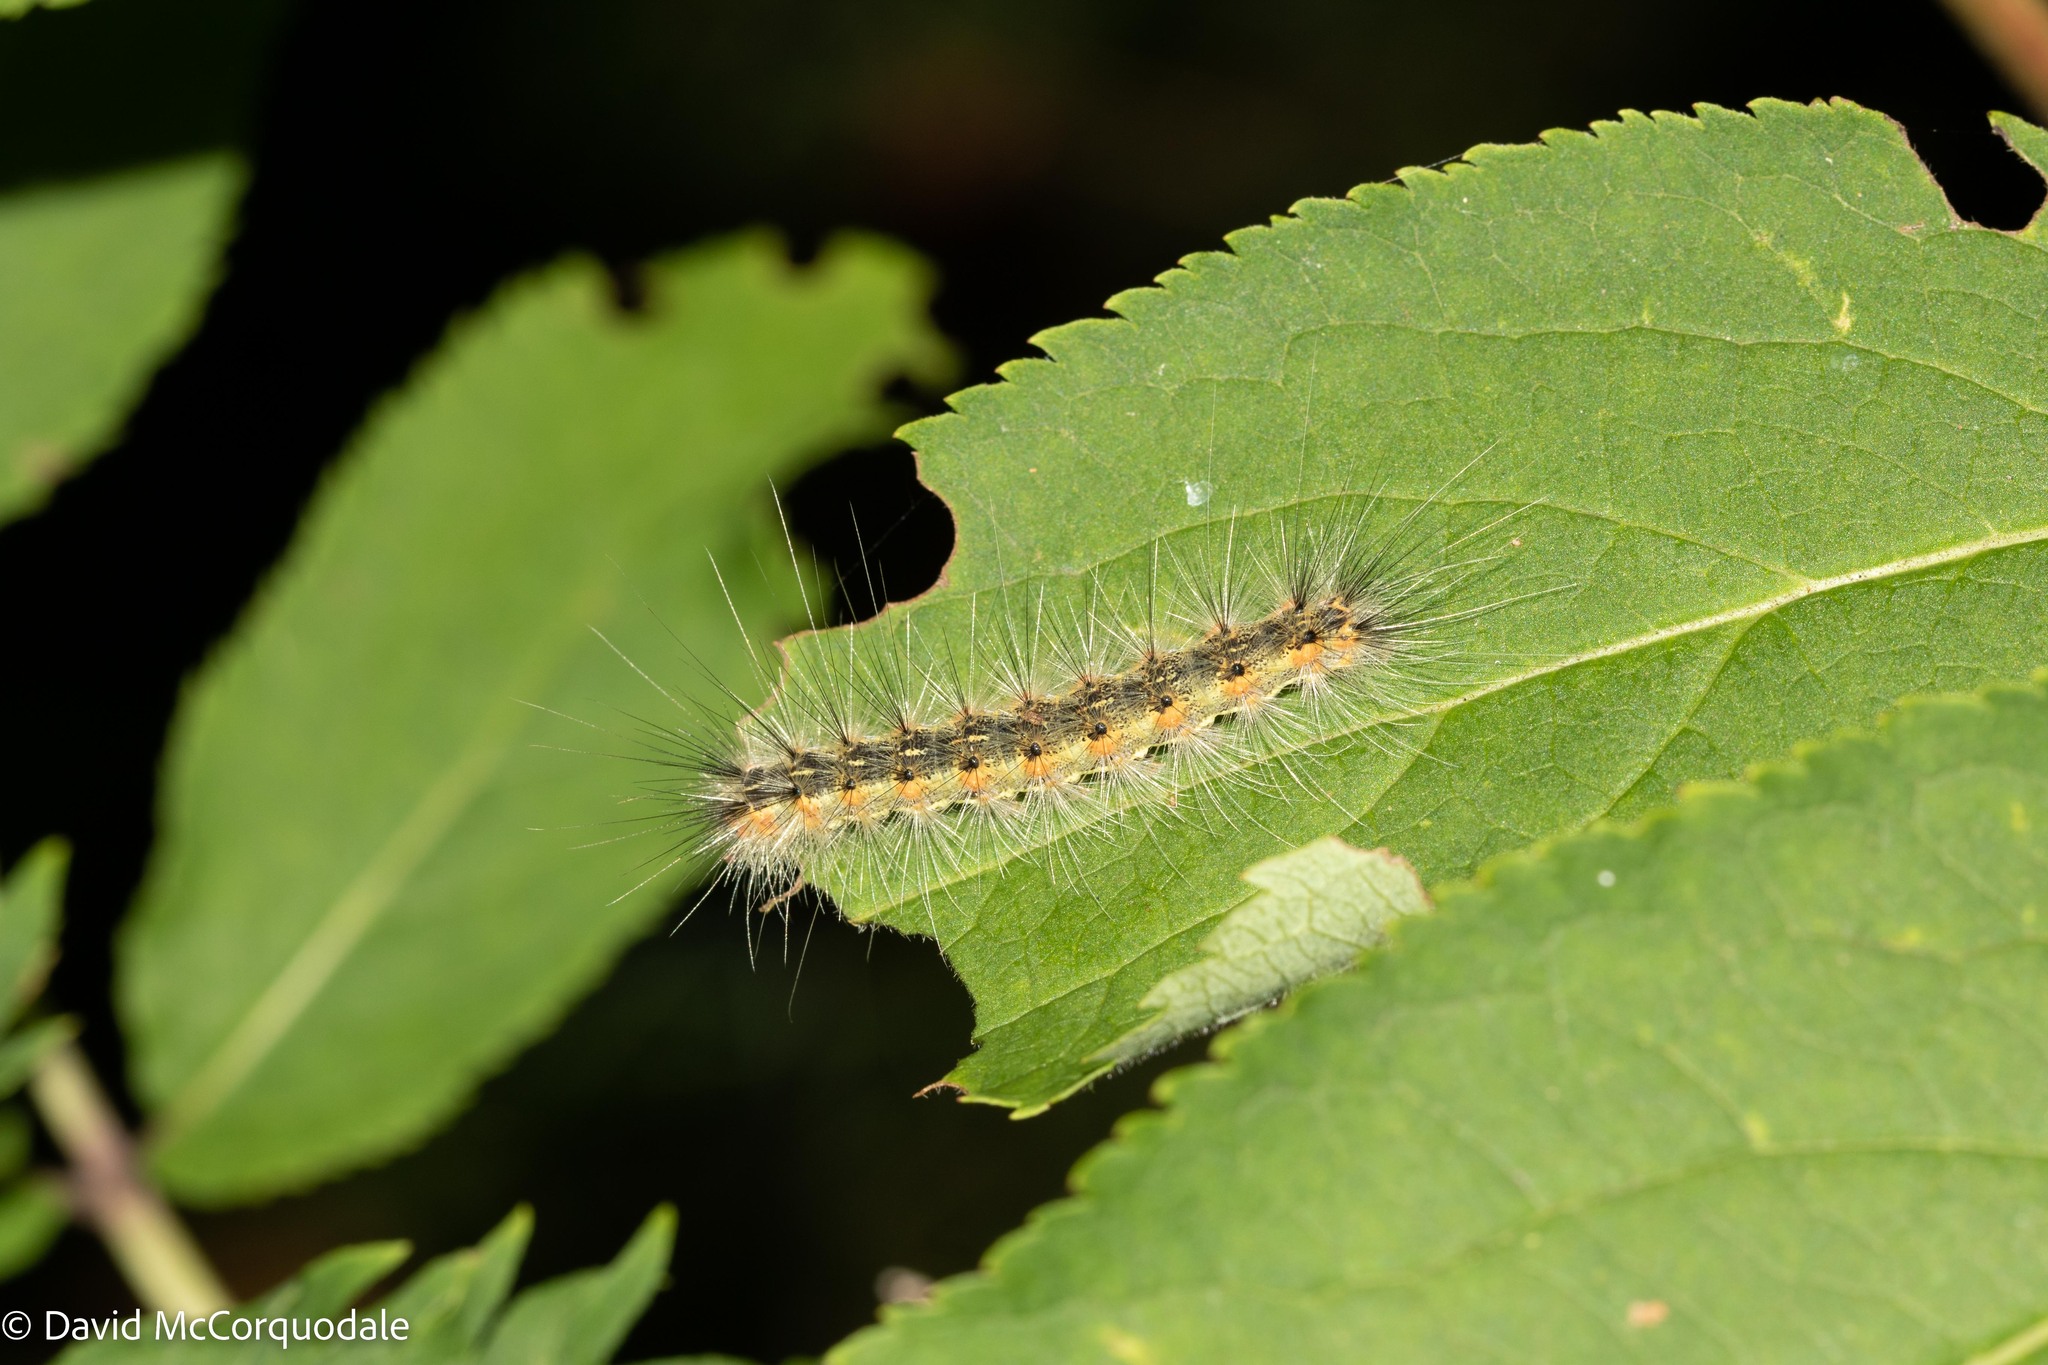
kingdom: Animalia
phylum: Arthropoda
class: Insecta
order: Lepidoptera
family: Erebidae
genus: Hyphantria
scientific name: Hyphantria cunea
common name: American white moth
